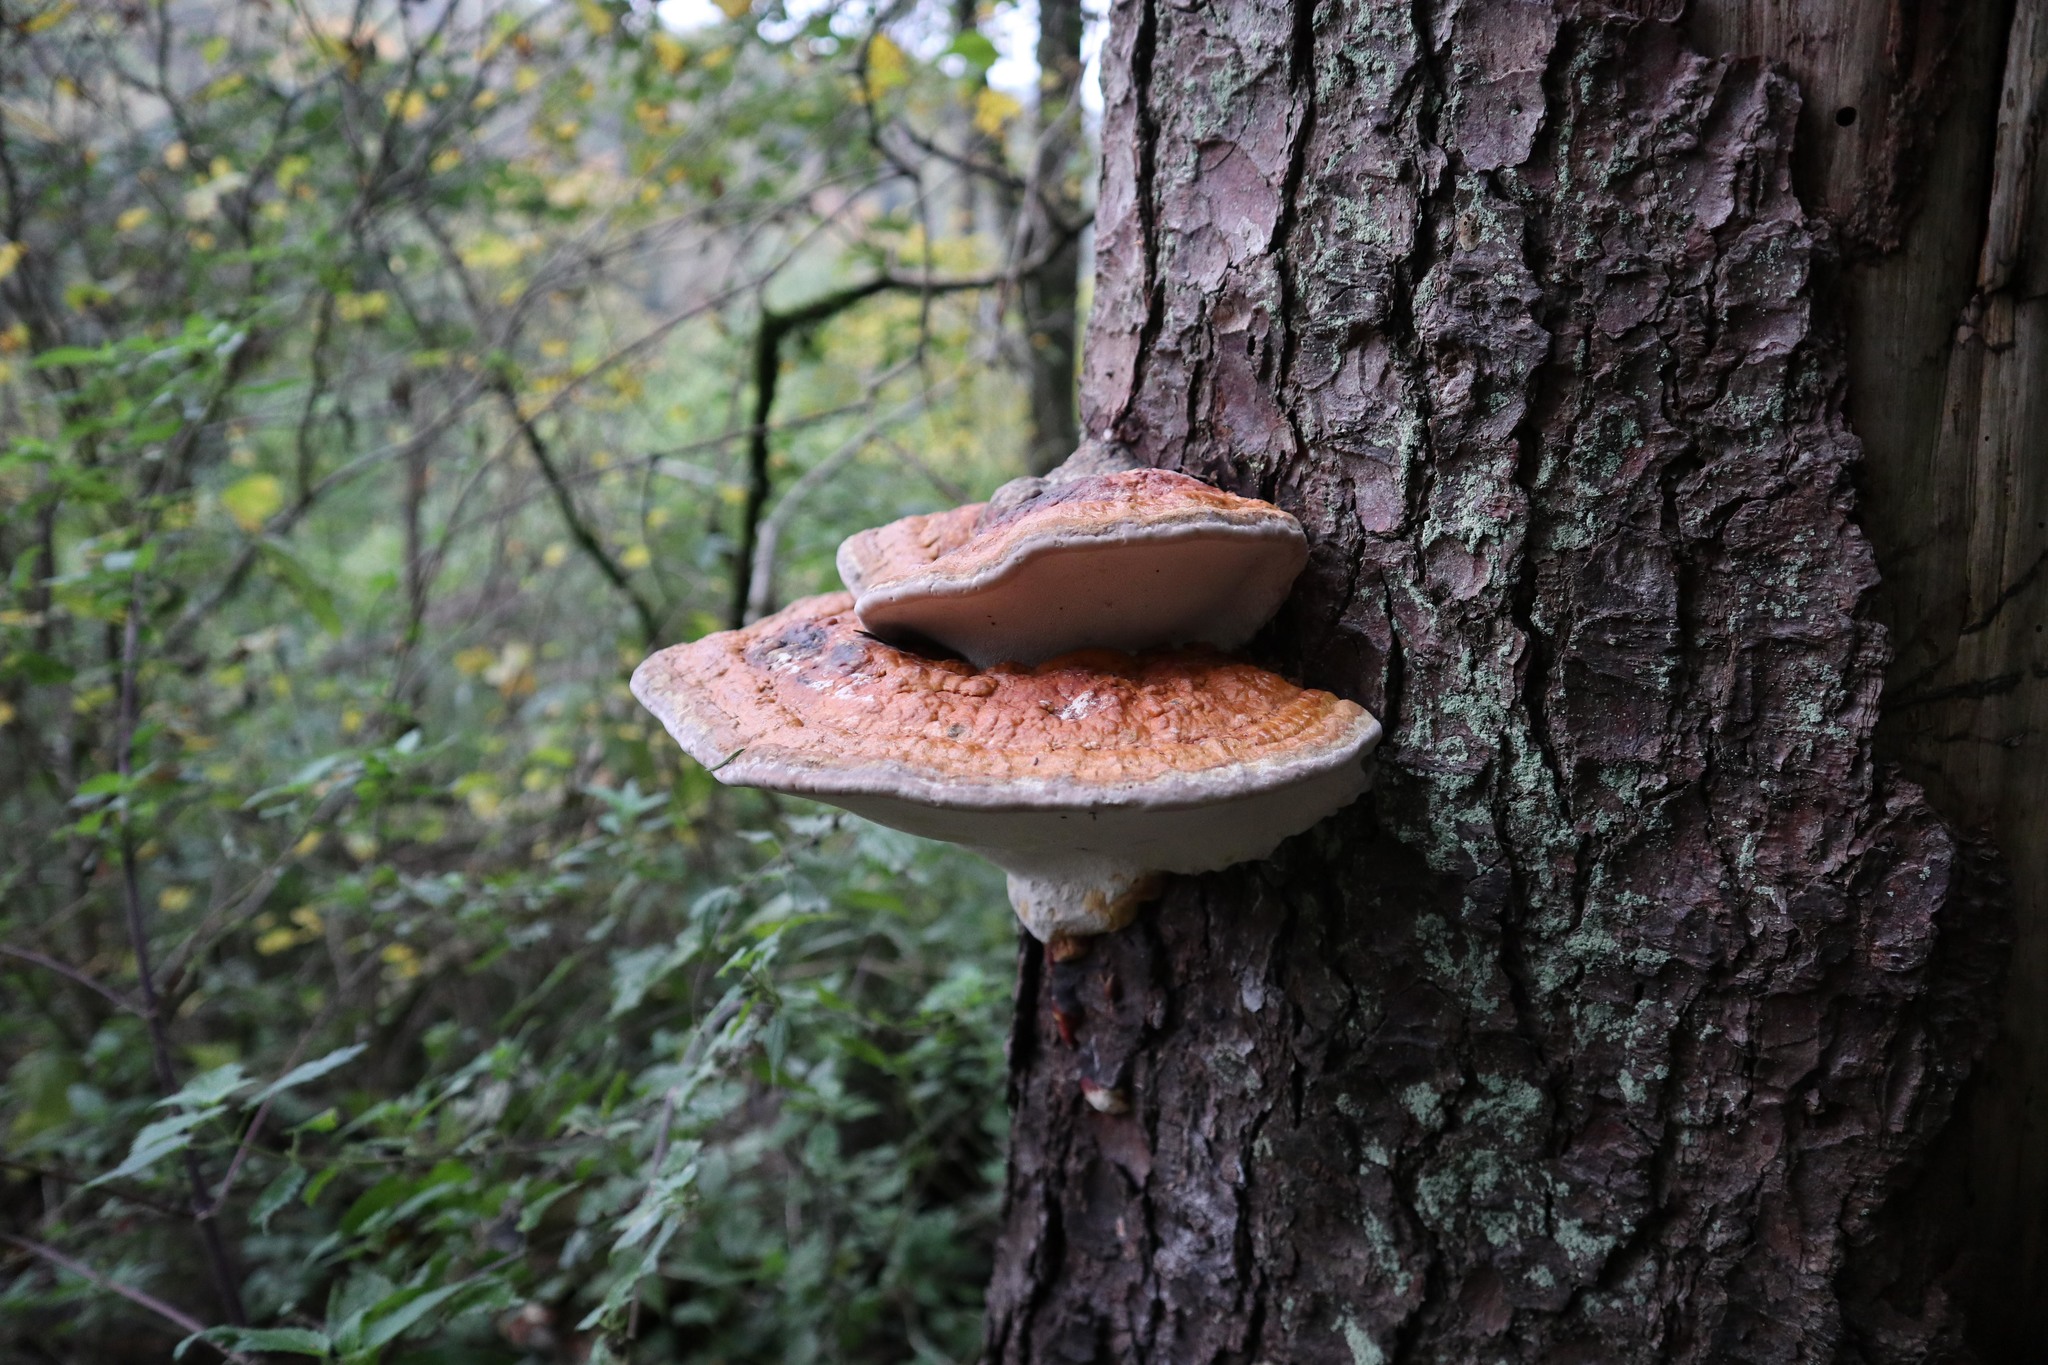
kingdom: Fungi
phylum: Basidiomycota
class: Agaricomycetes
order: Polyporales
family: Fomitopsidaceae
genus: Fomitopsis
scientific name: Fomitopsis pinicola
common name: Red-belted bracket
